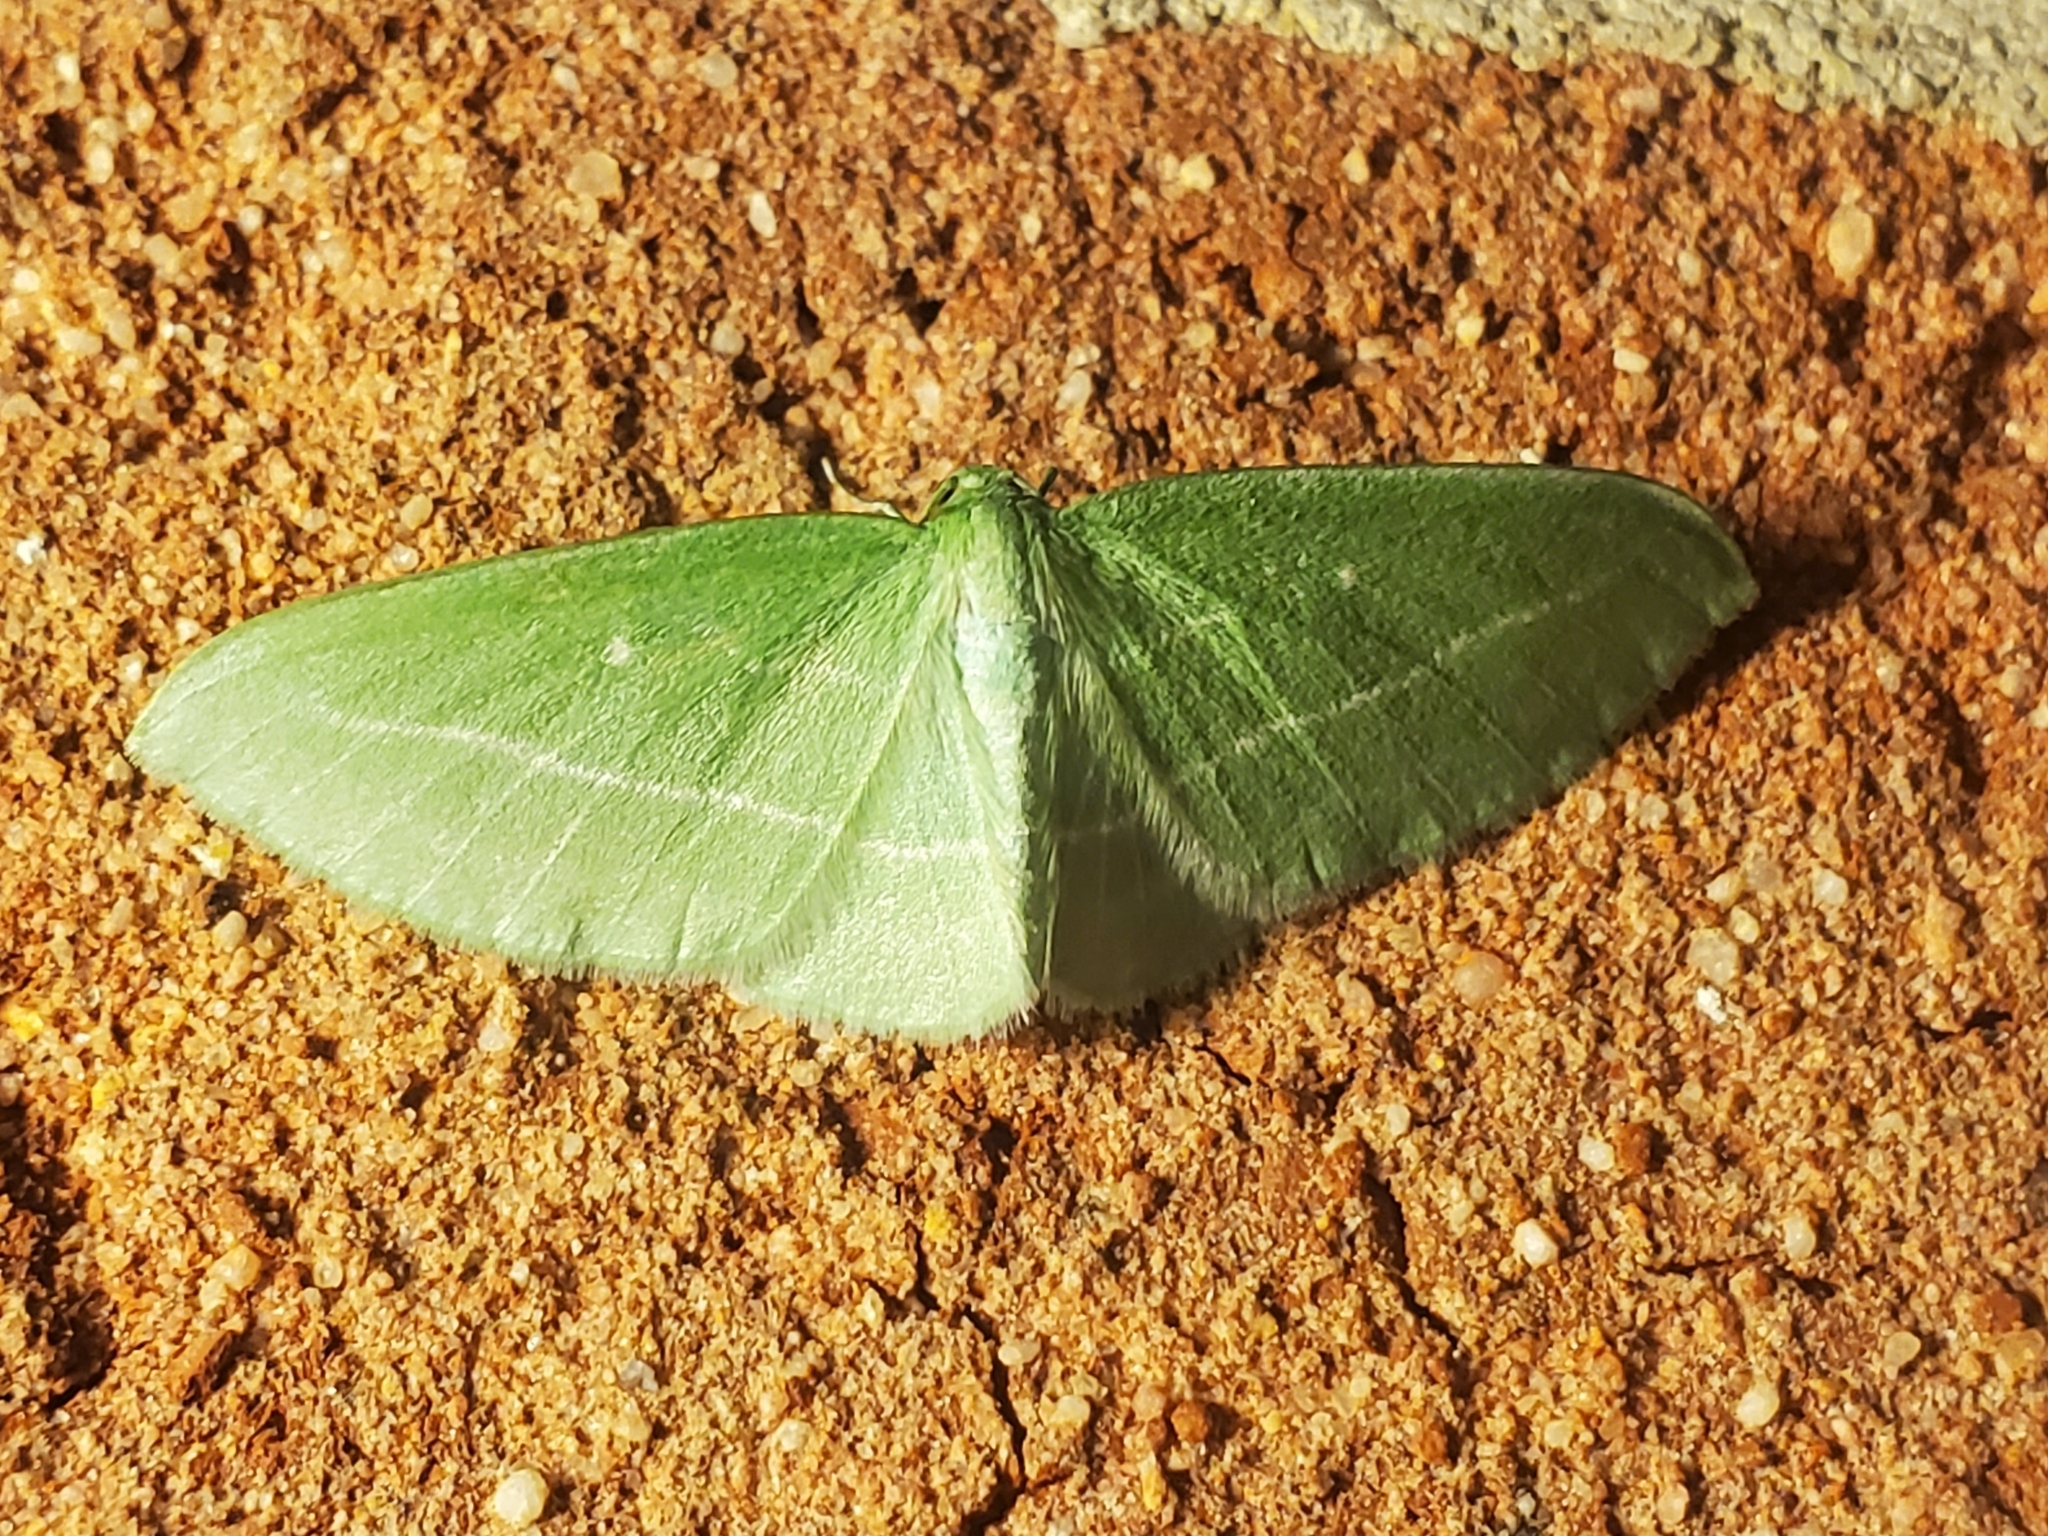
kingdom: Animalia
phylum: Arthropoda
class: Insecta
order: Lepidoptera
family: Geometridae
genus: Dyspteris
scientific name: Dyspteris abortivaria
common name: Bad-wing
